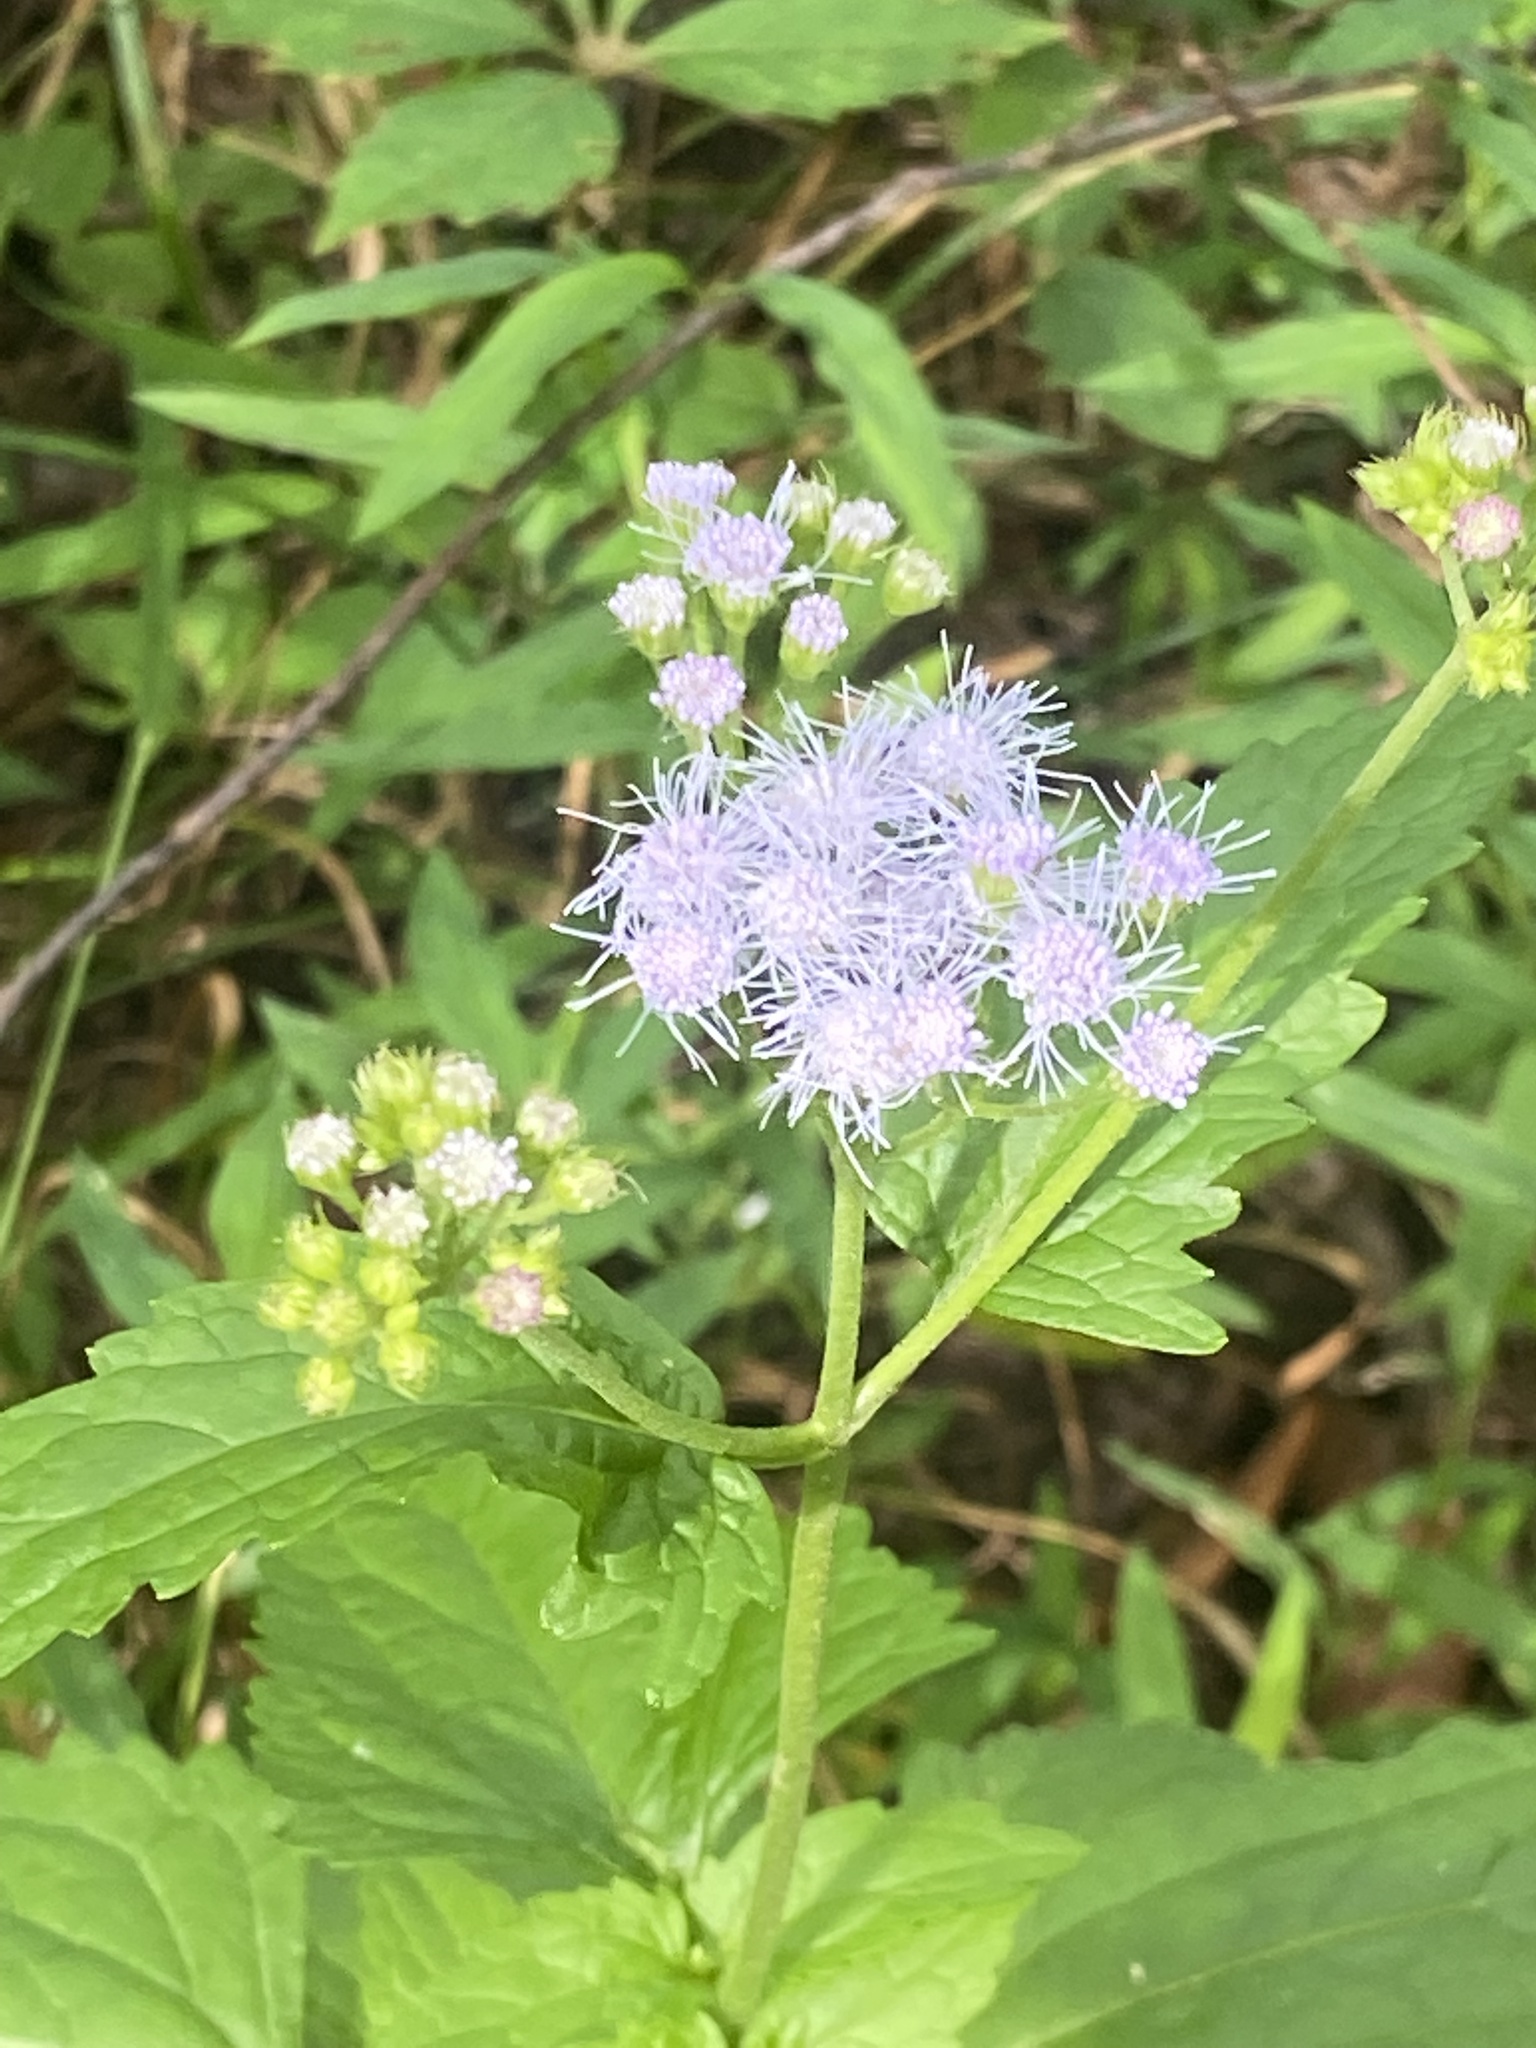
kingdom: Plantae
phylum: Tracheophyta
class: Magnoliopsida
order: Asterales
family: Asteraceae
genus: Conoclinium
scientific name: Conoclinium coelestinum
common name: Blue mistflower
